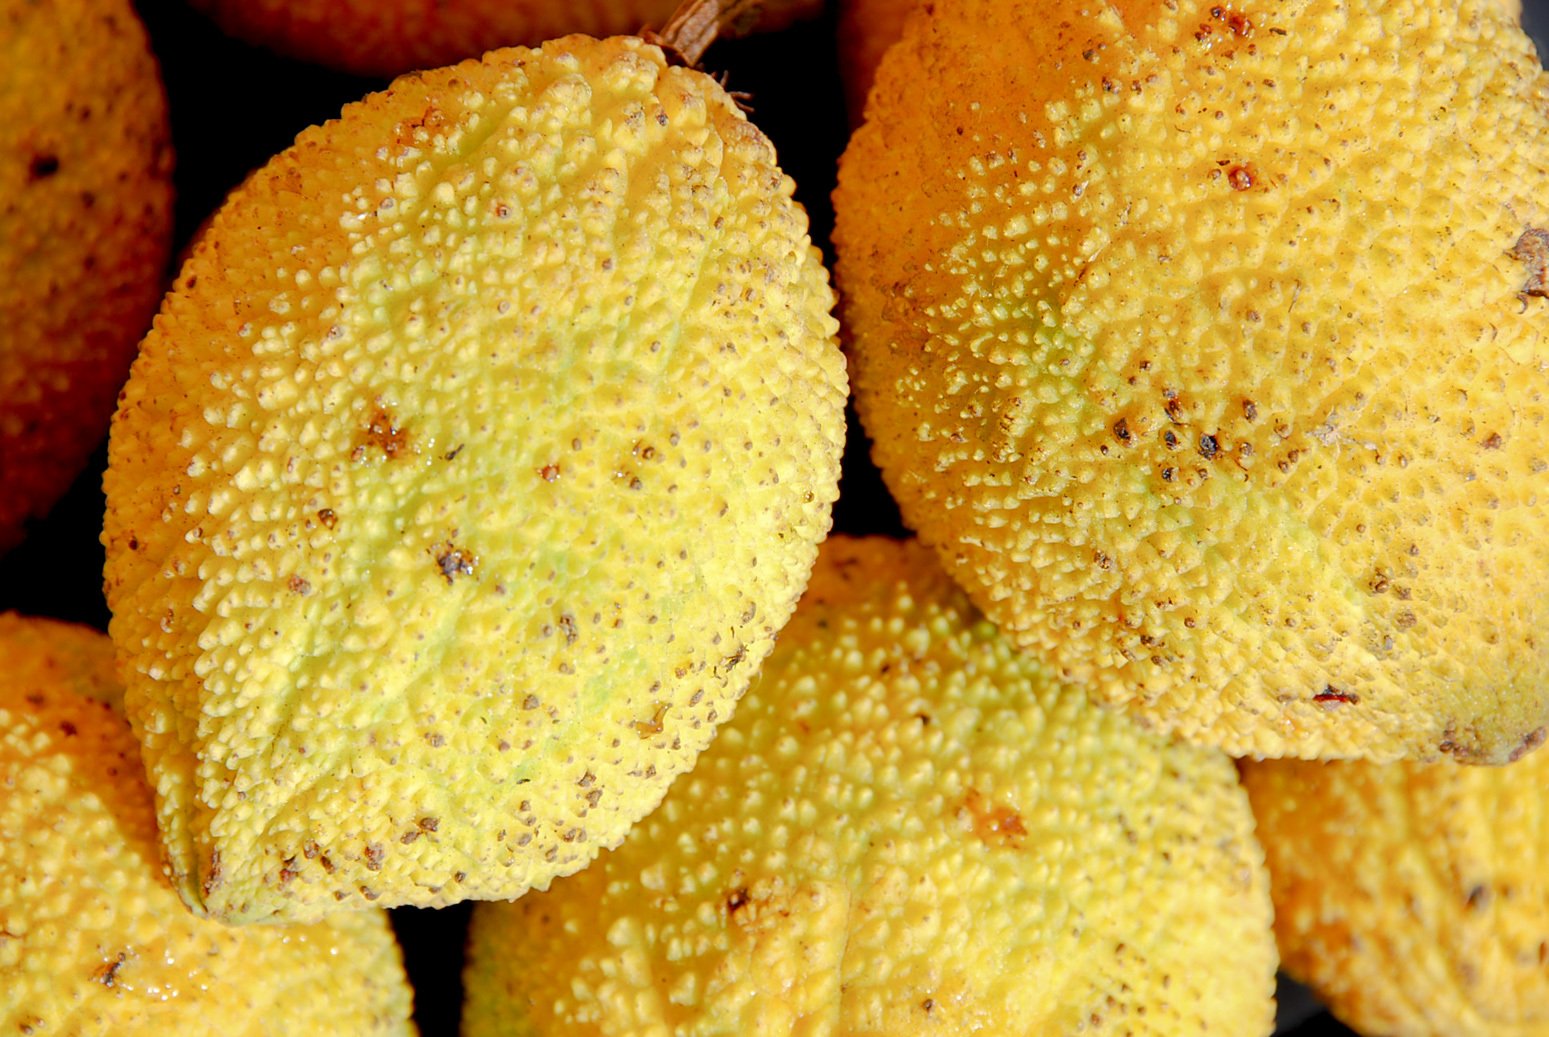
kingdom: Plantae
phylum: Tracheophyta
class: Magnoliopsida
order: Malpighiales
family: Clusiaceae
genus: Garcinia
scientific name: Garcinia madruno
